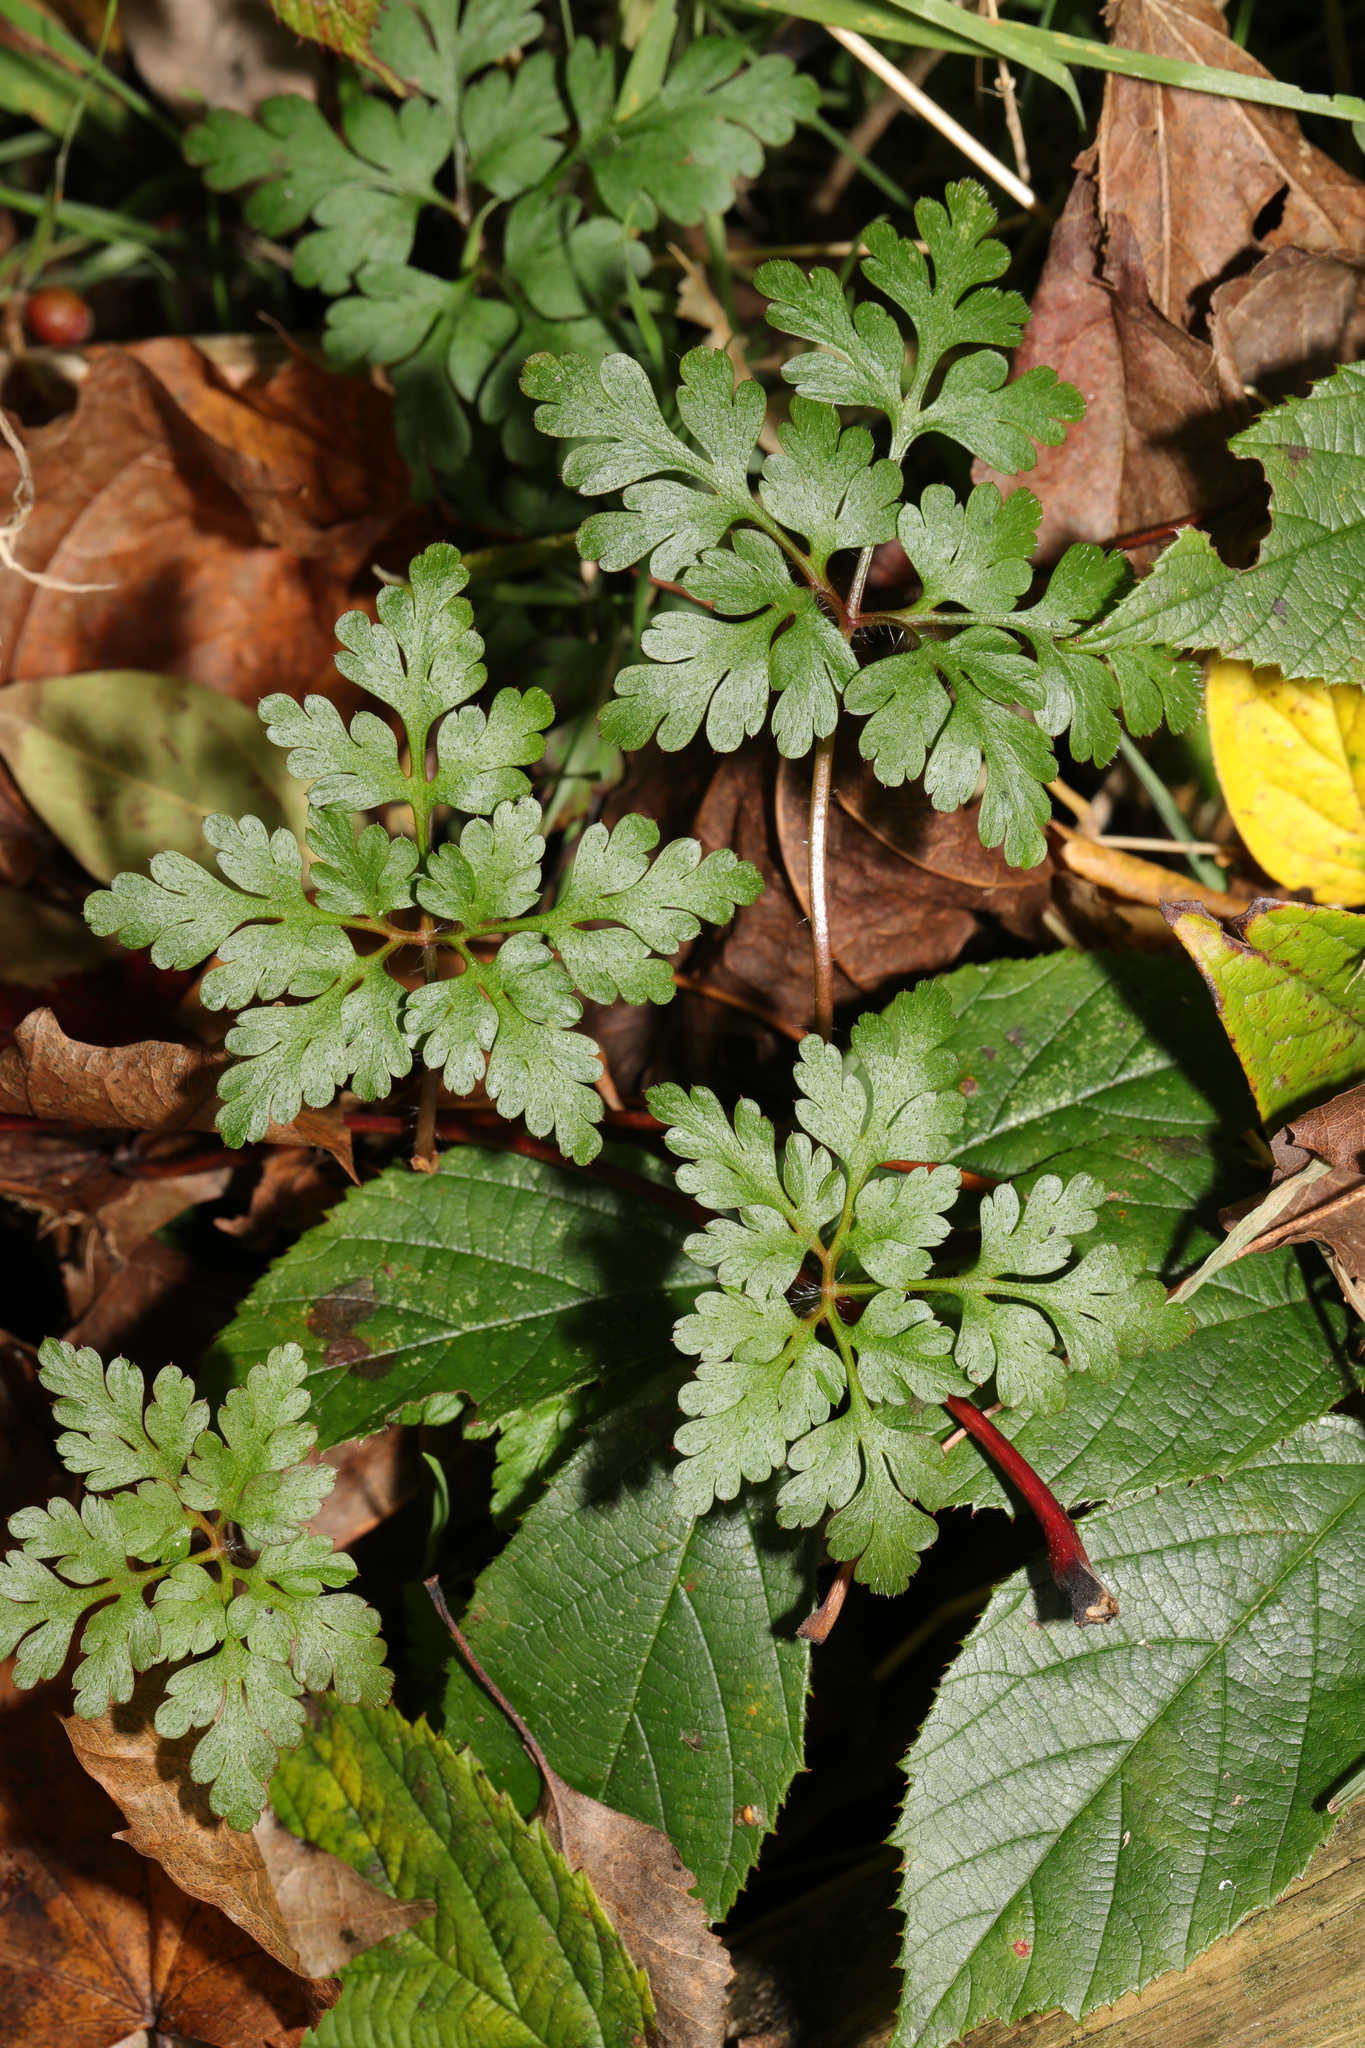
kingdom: Plantae
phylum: Tracheophyta
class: Magnoliopsida
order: Geraniales
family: Geraniaceae
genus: Geranium
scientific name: Geranium robertianum
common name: Herb-robert
